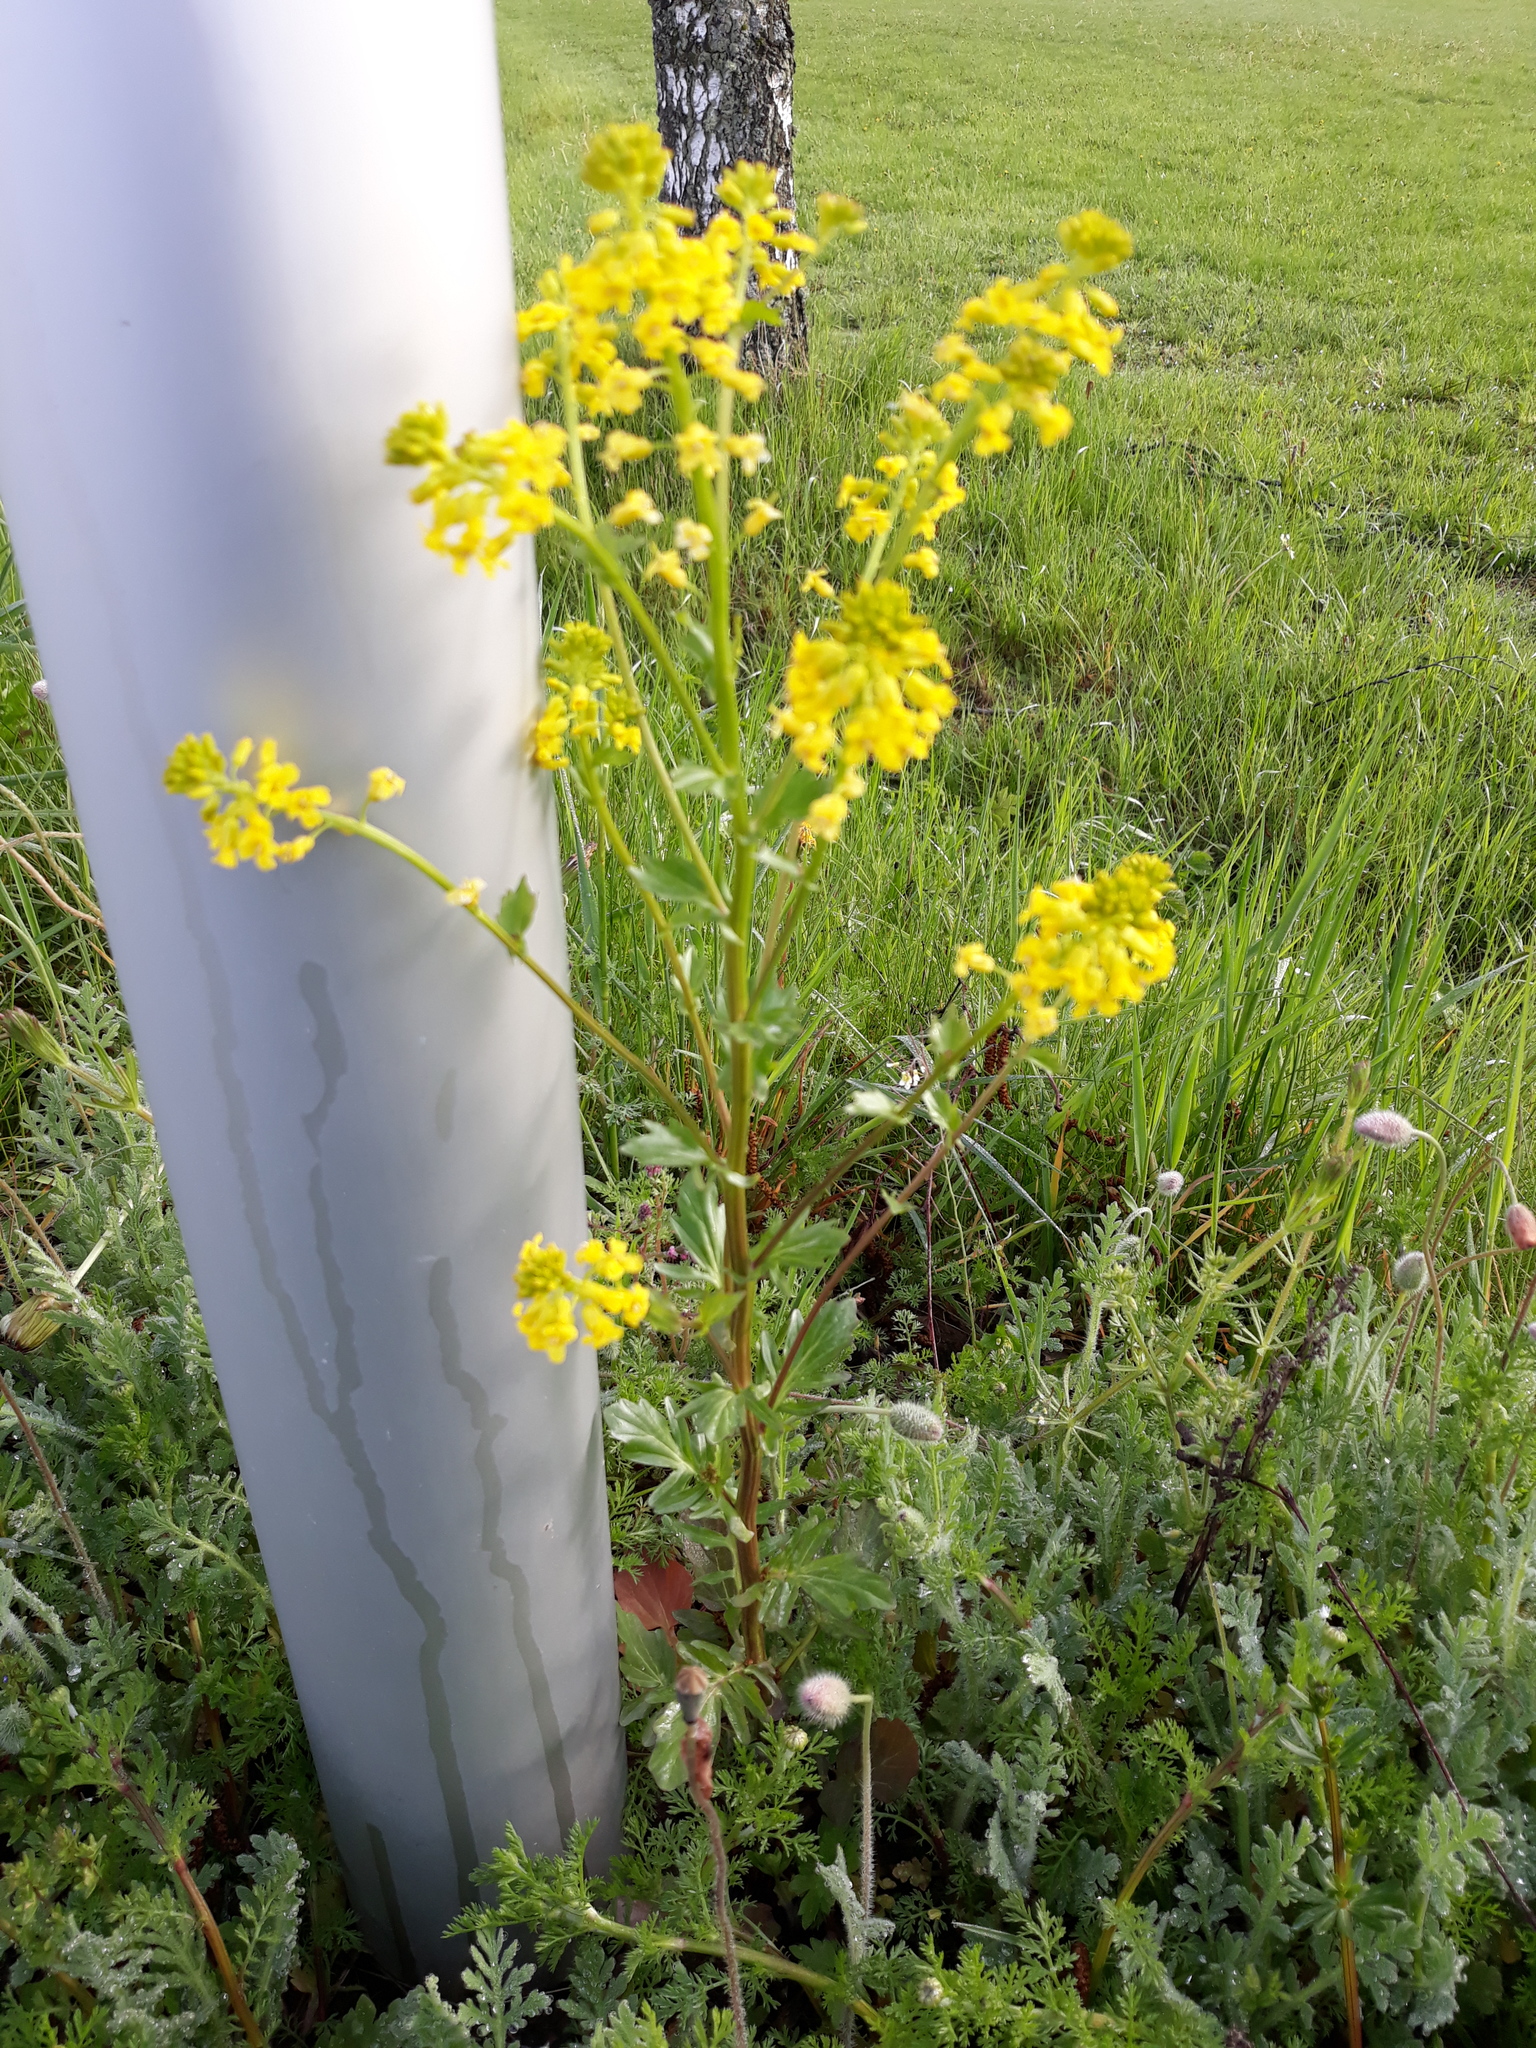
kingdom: Plantae
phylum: Tracheophyta
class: Magnoliopsida
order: Brassicales
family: Brassicaceae
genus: Barbarea
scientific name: Barbarea vulgaris
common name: Cressy-greens
